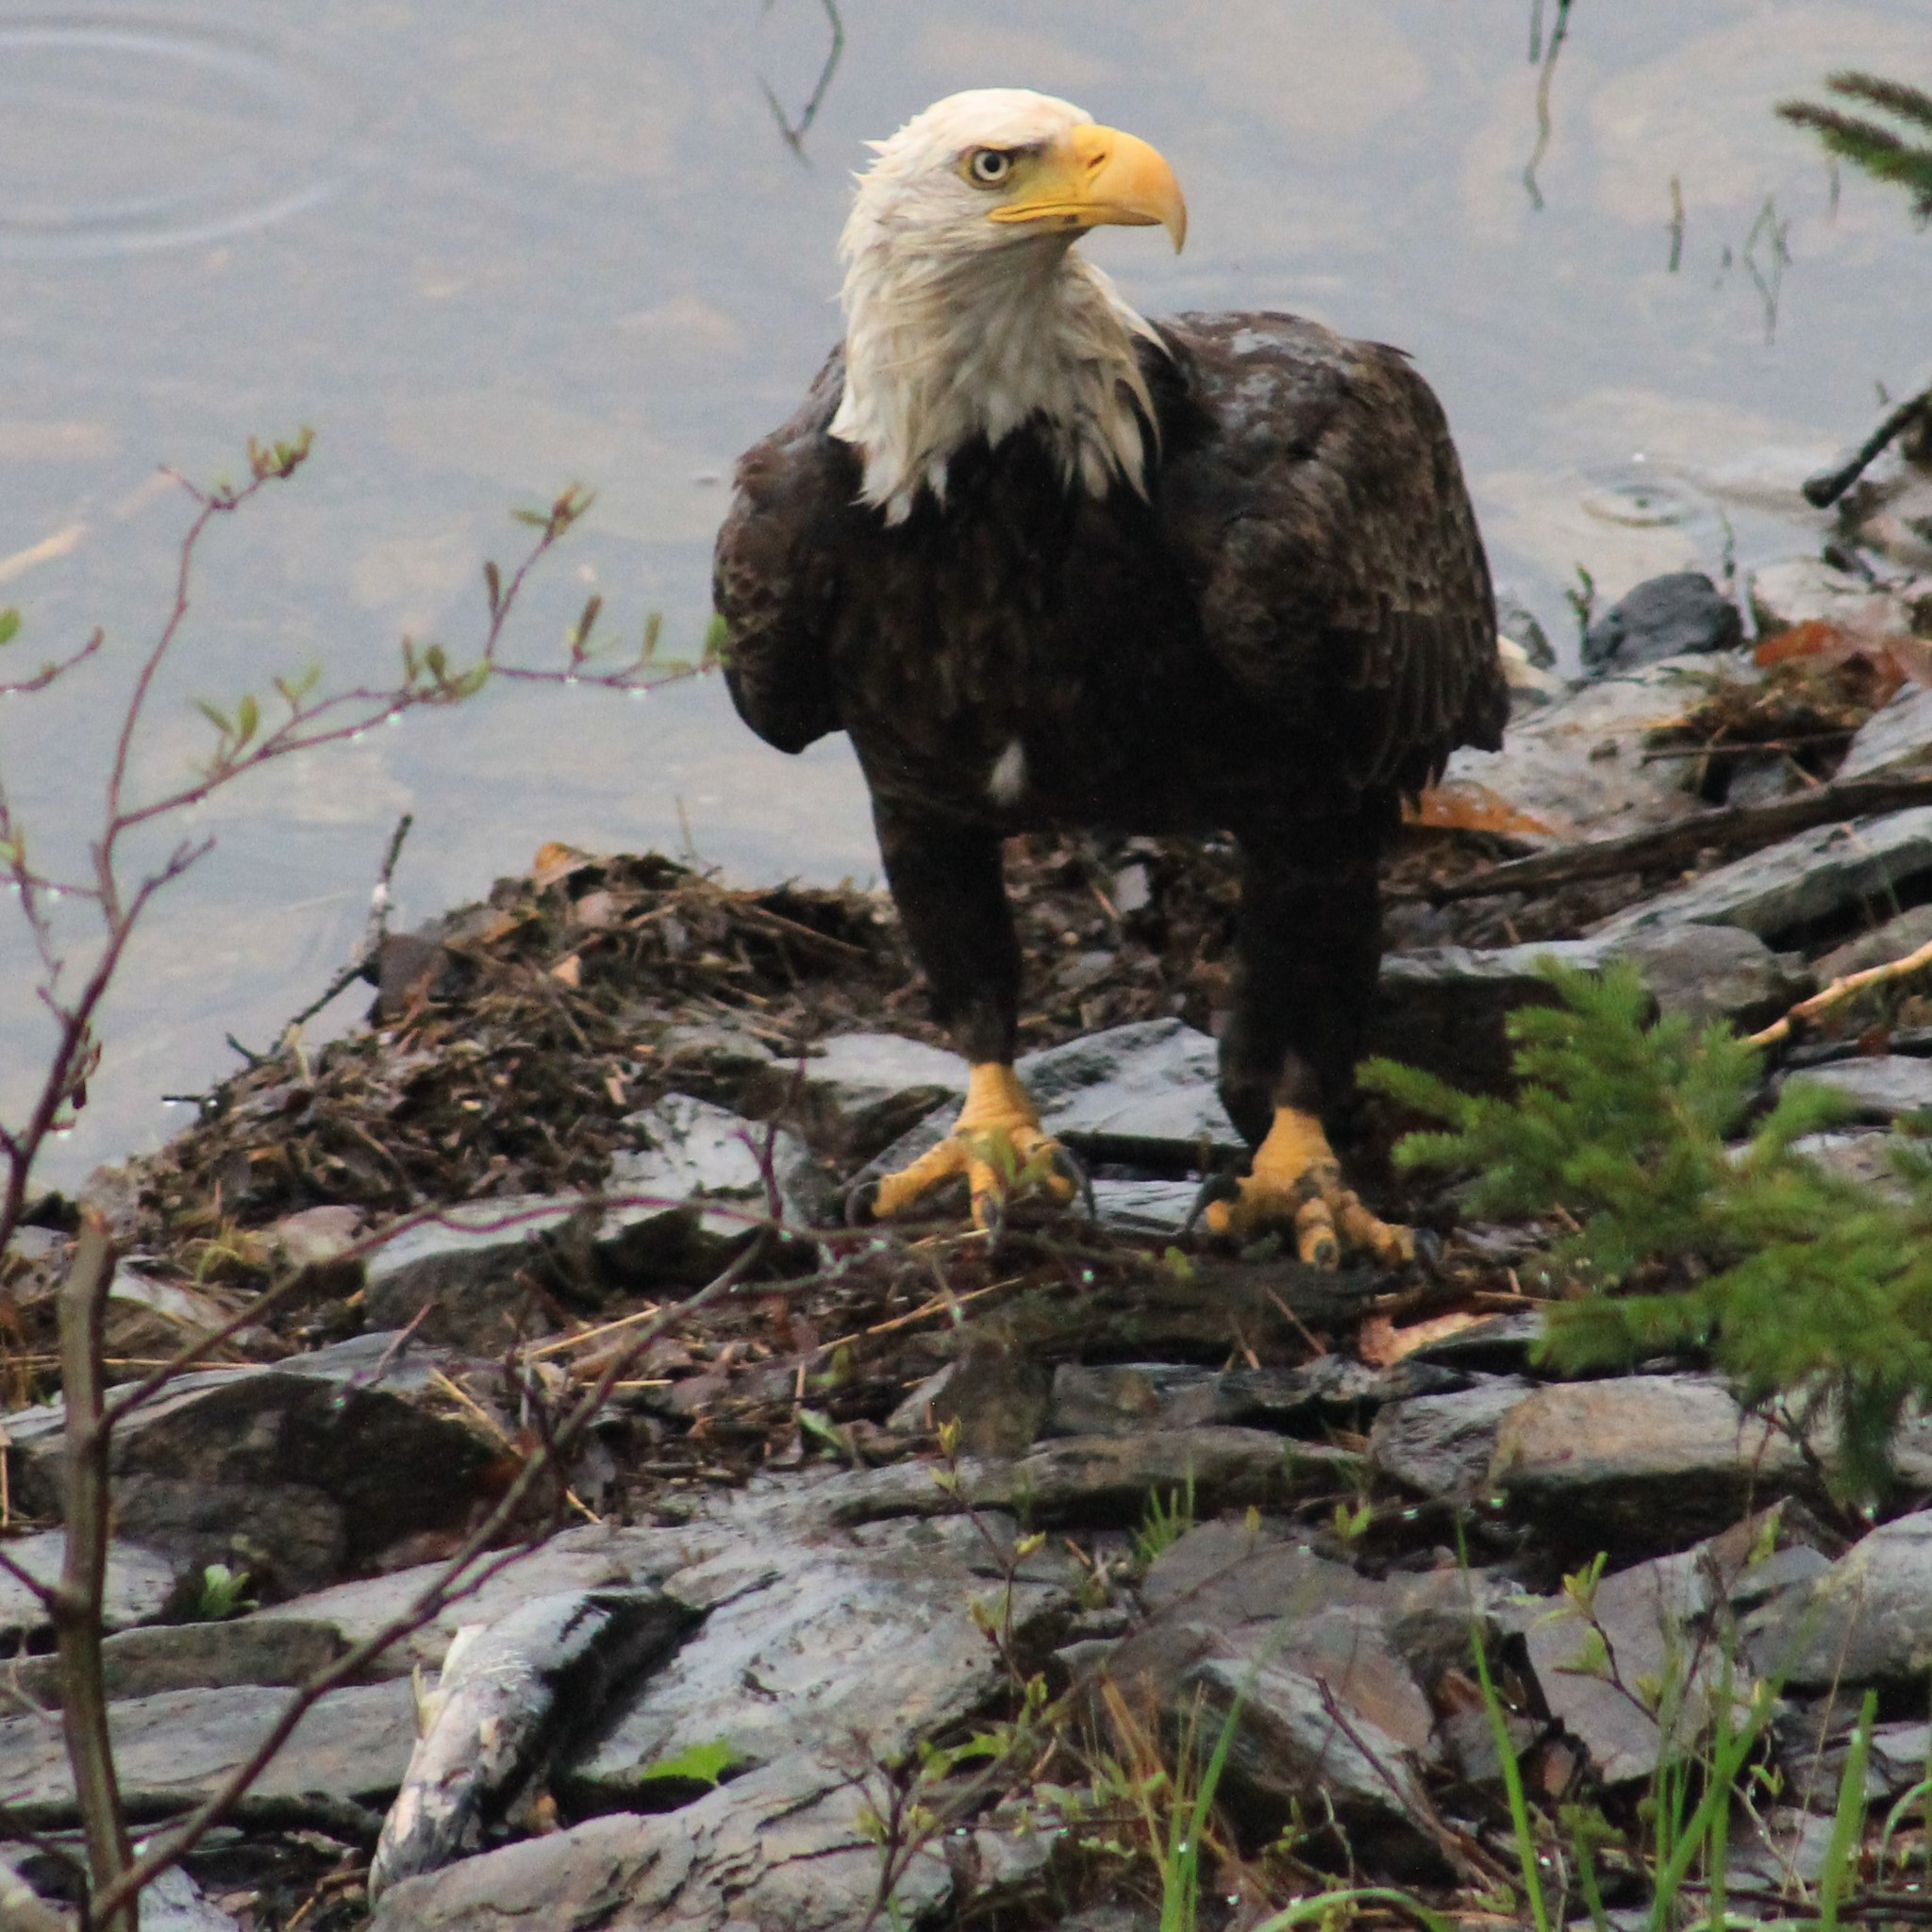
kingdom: Animalia
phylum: Chordata
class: Aves
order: Accipitriformes
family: Accipitridae
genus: Haliaeetus
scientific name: Haliaeetus leucocephalus
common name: Bald eagle
